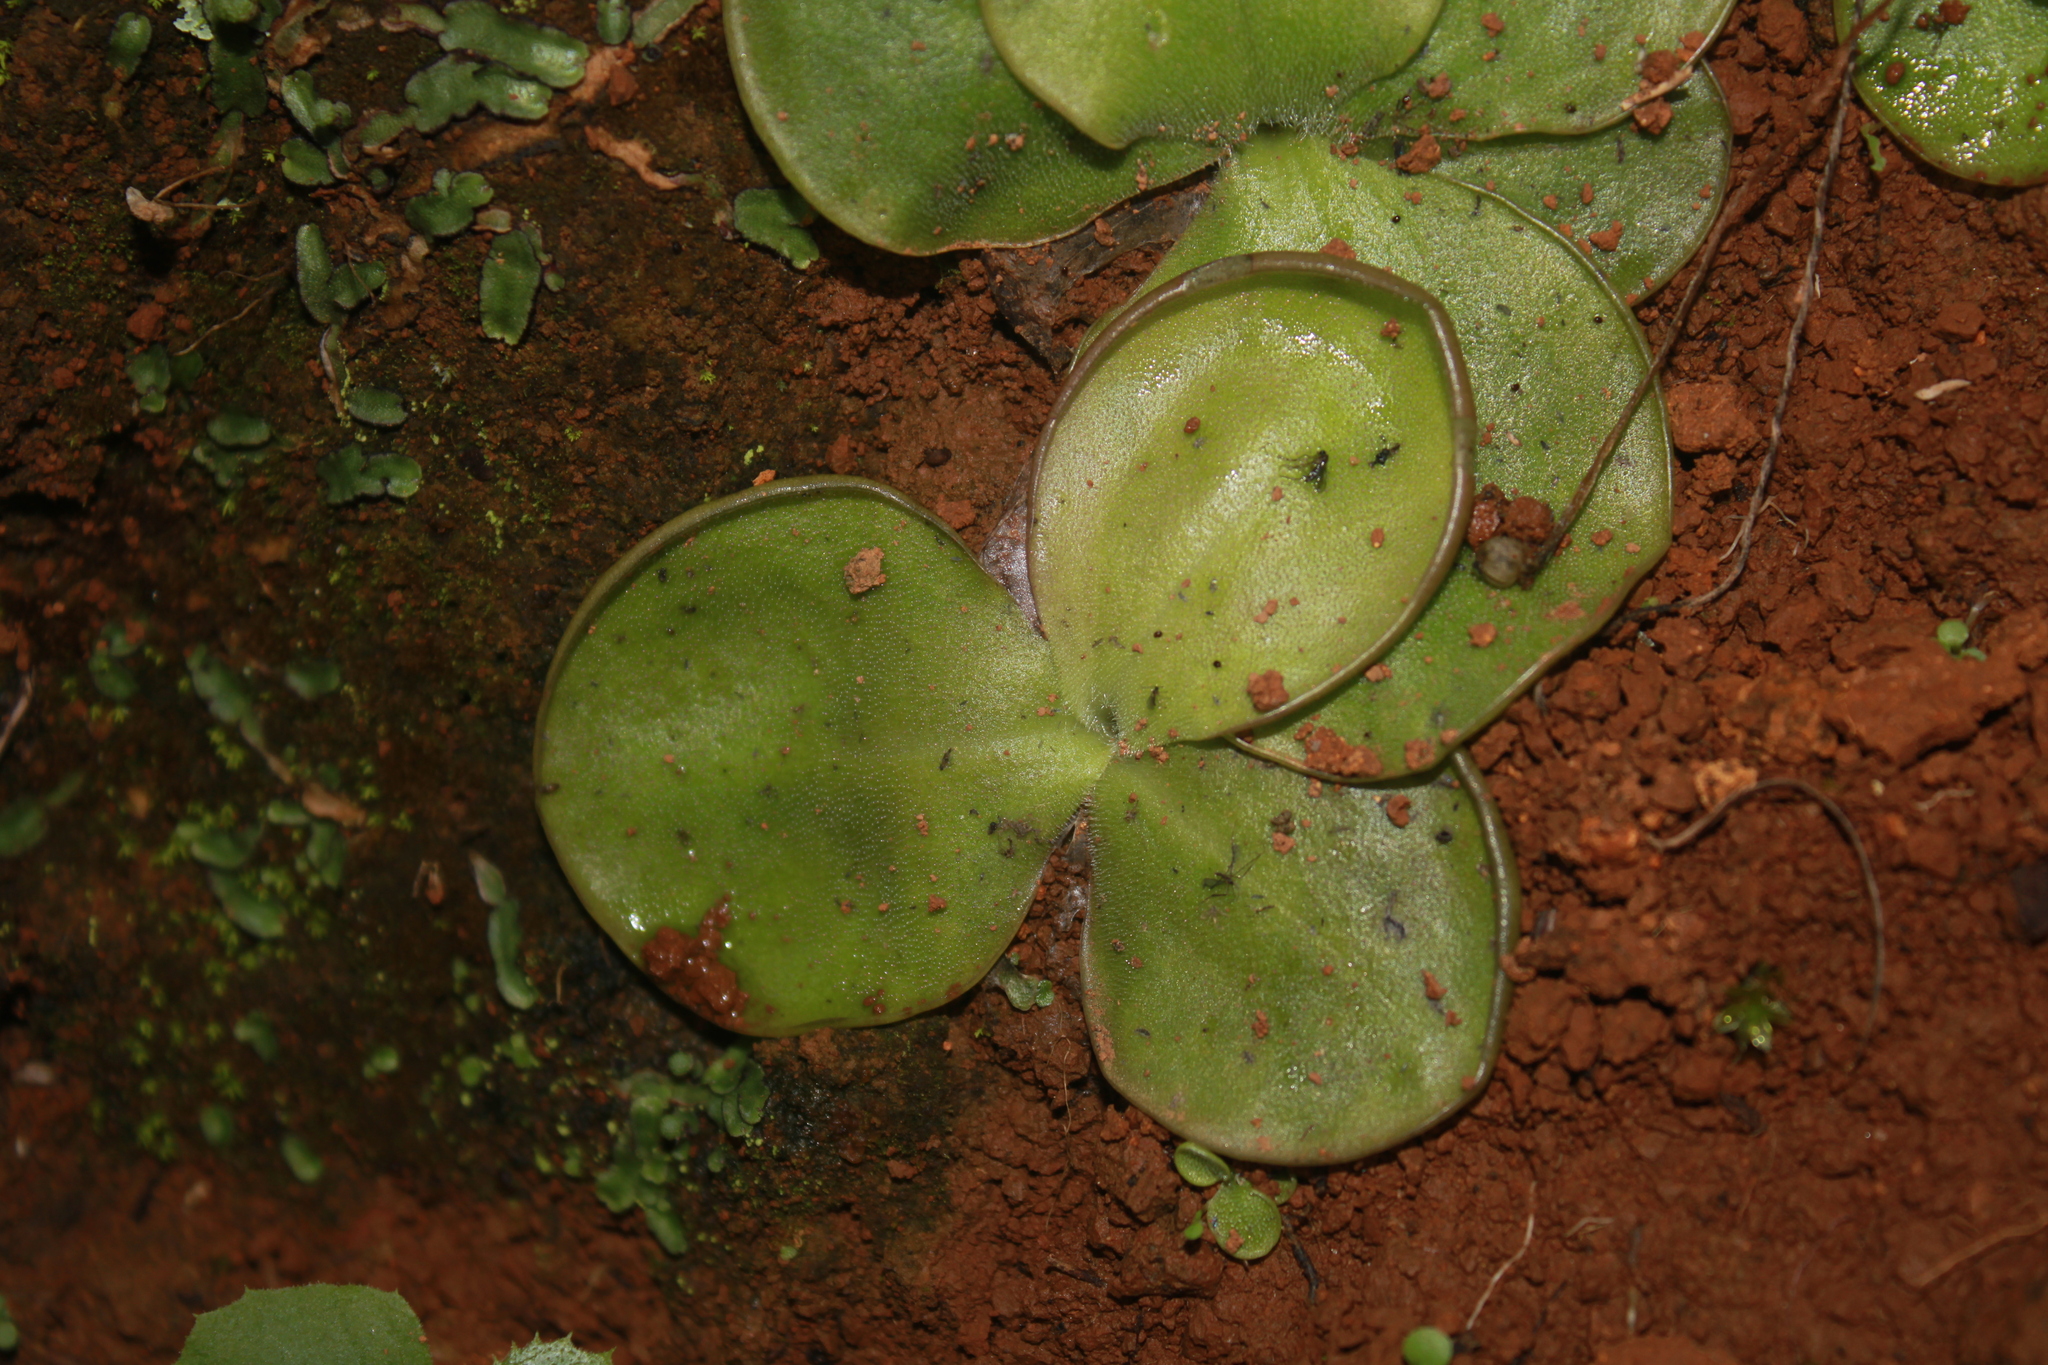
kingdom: Plantae
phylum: Tracheophyta
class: Magnoliopsida
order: Lamiales
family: Lentibulariaceae
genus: Pinguicula
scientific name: Pinguicula oblongiloba
